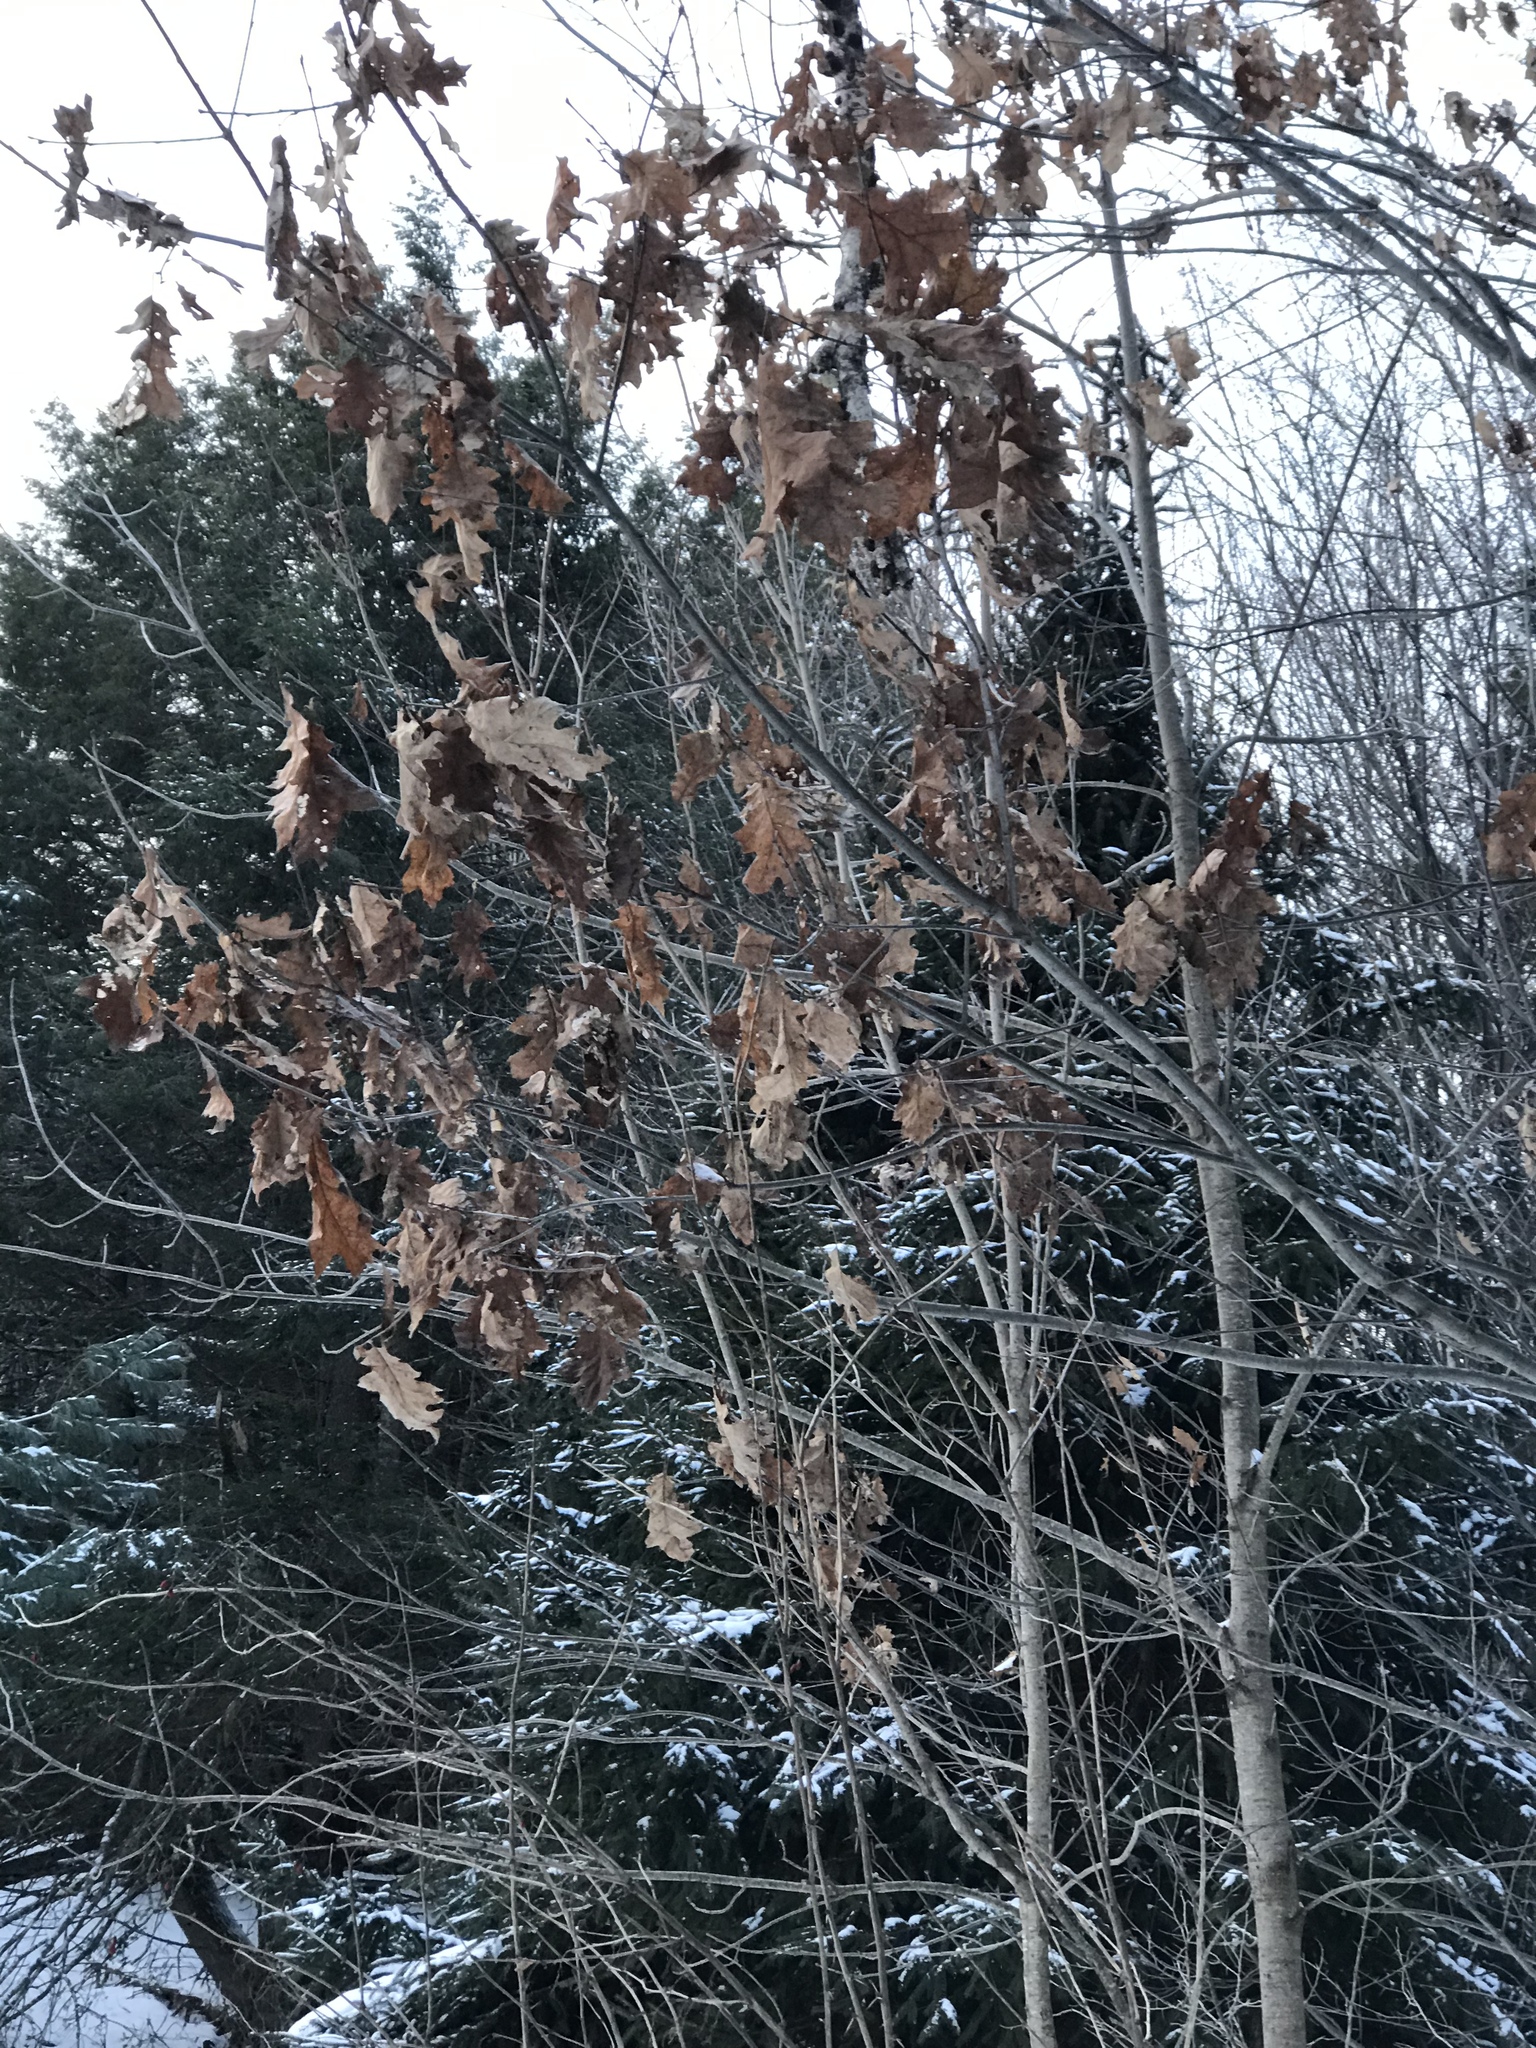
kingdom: Plantae
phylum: Tracheophyta
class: Magnoliopsida
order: Fagales
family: Fagaceae
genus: Quercus
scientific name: Quercus rubra
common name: Red oak
